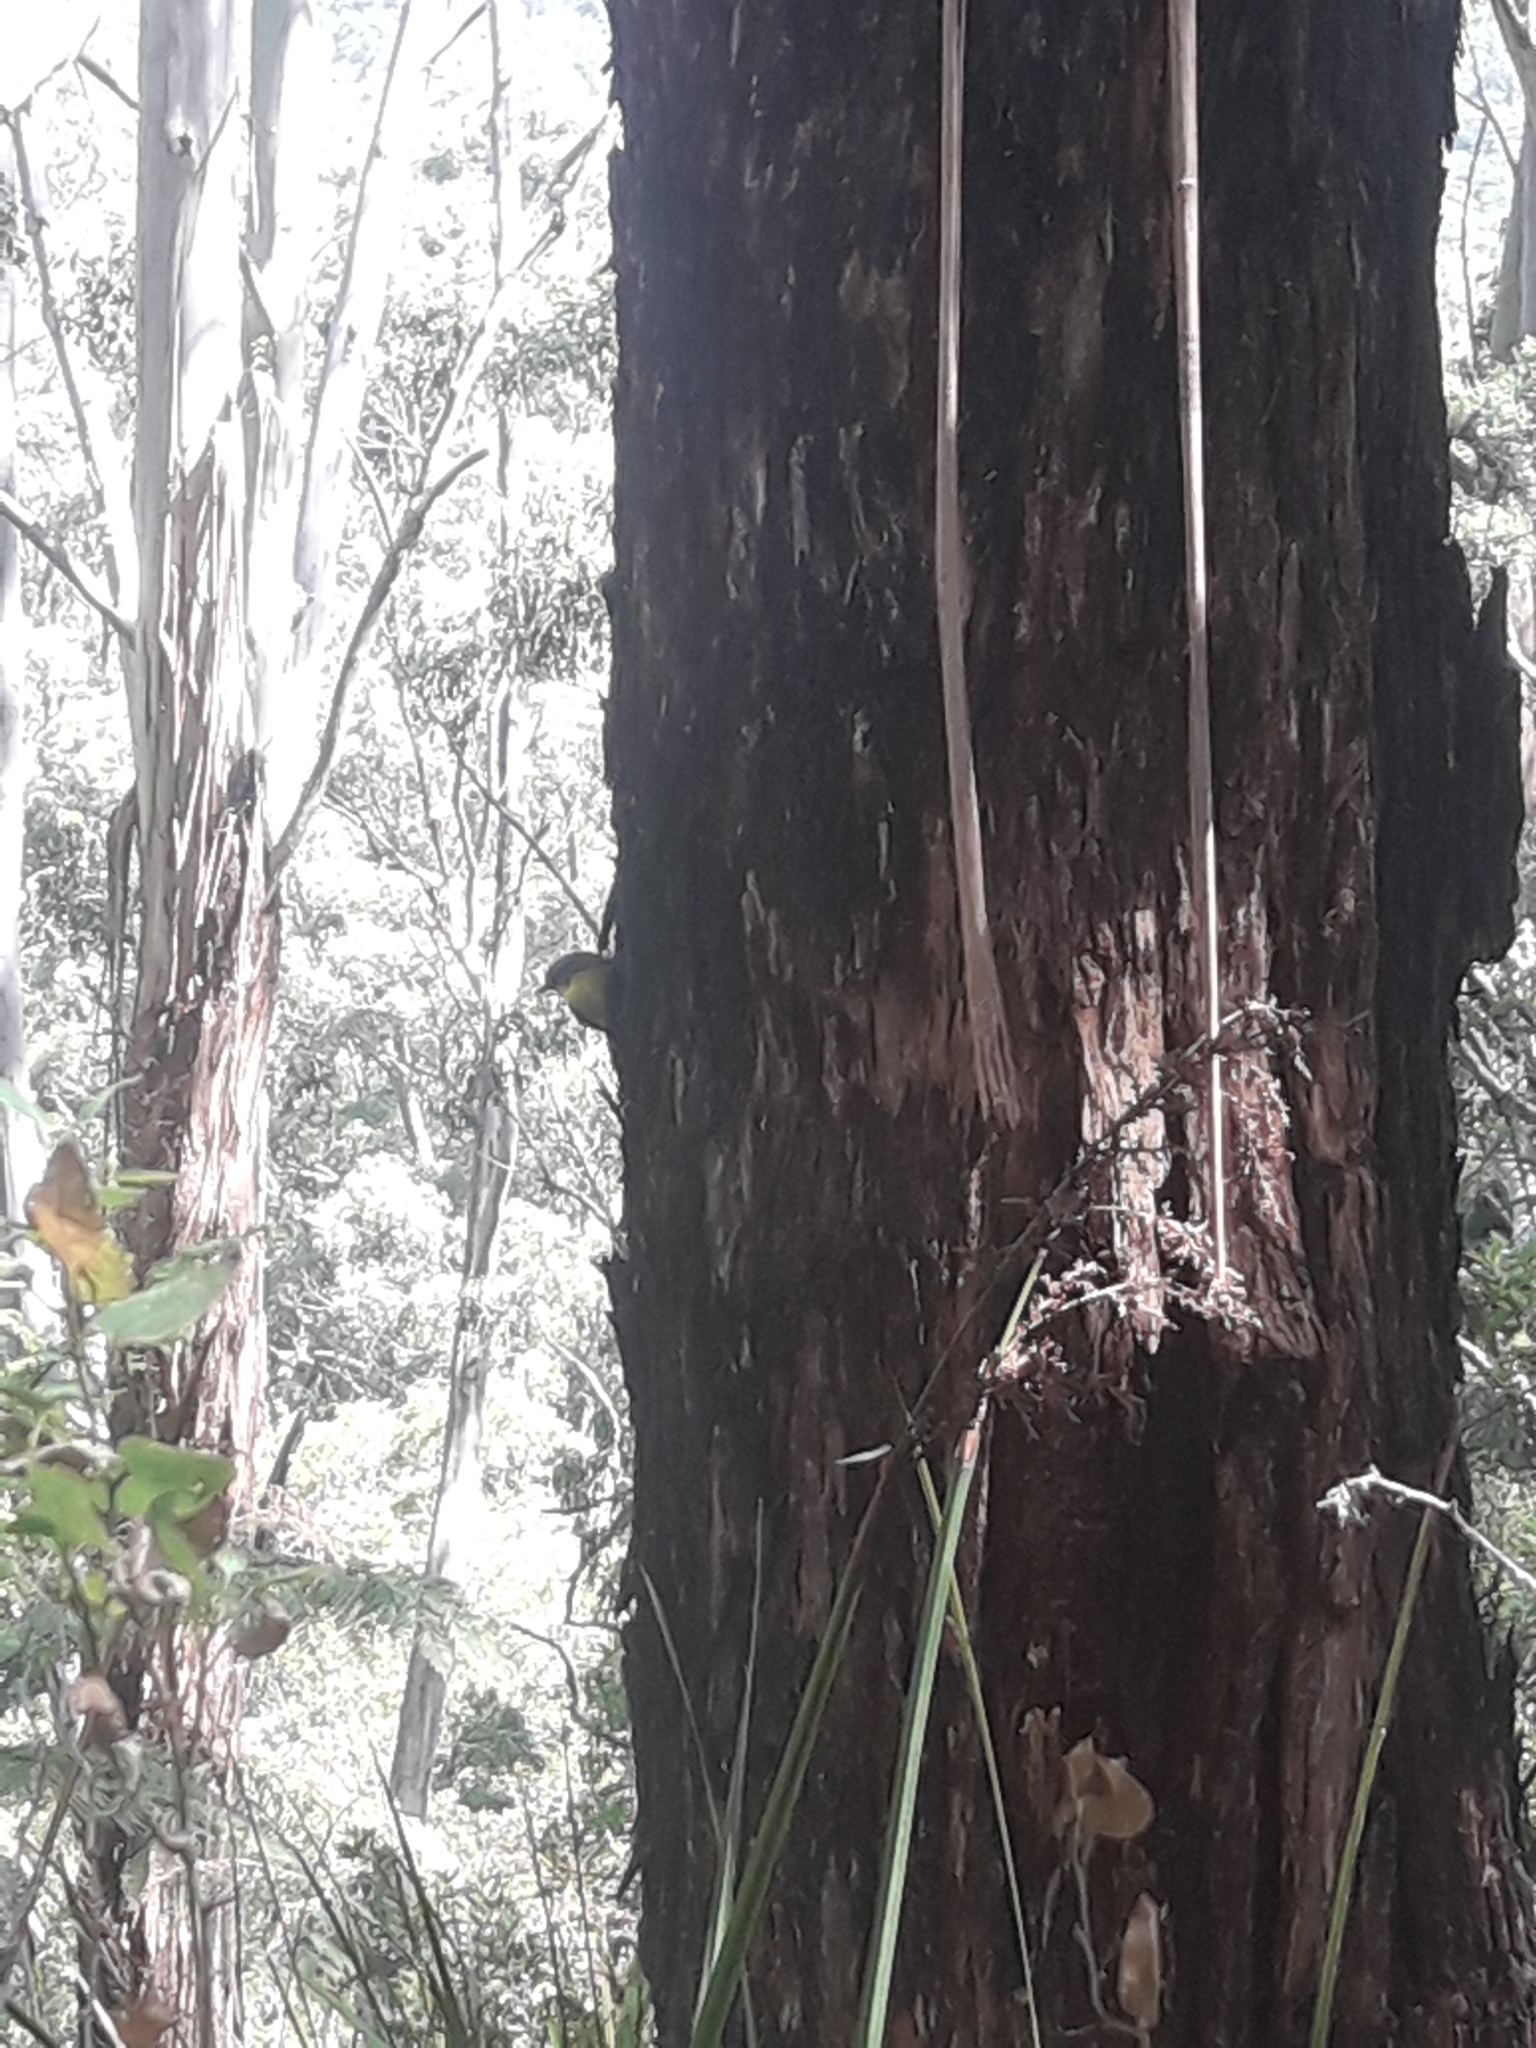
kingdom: Animalia
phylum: Chordata
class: Aves
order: Passeriformes
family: Petroicidae
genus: Eopsaltria
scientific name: Eopsaltria australis
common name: Eastern yellow robin
